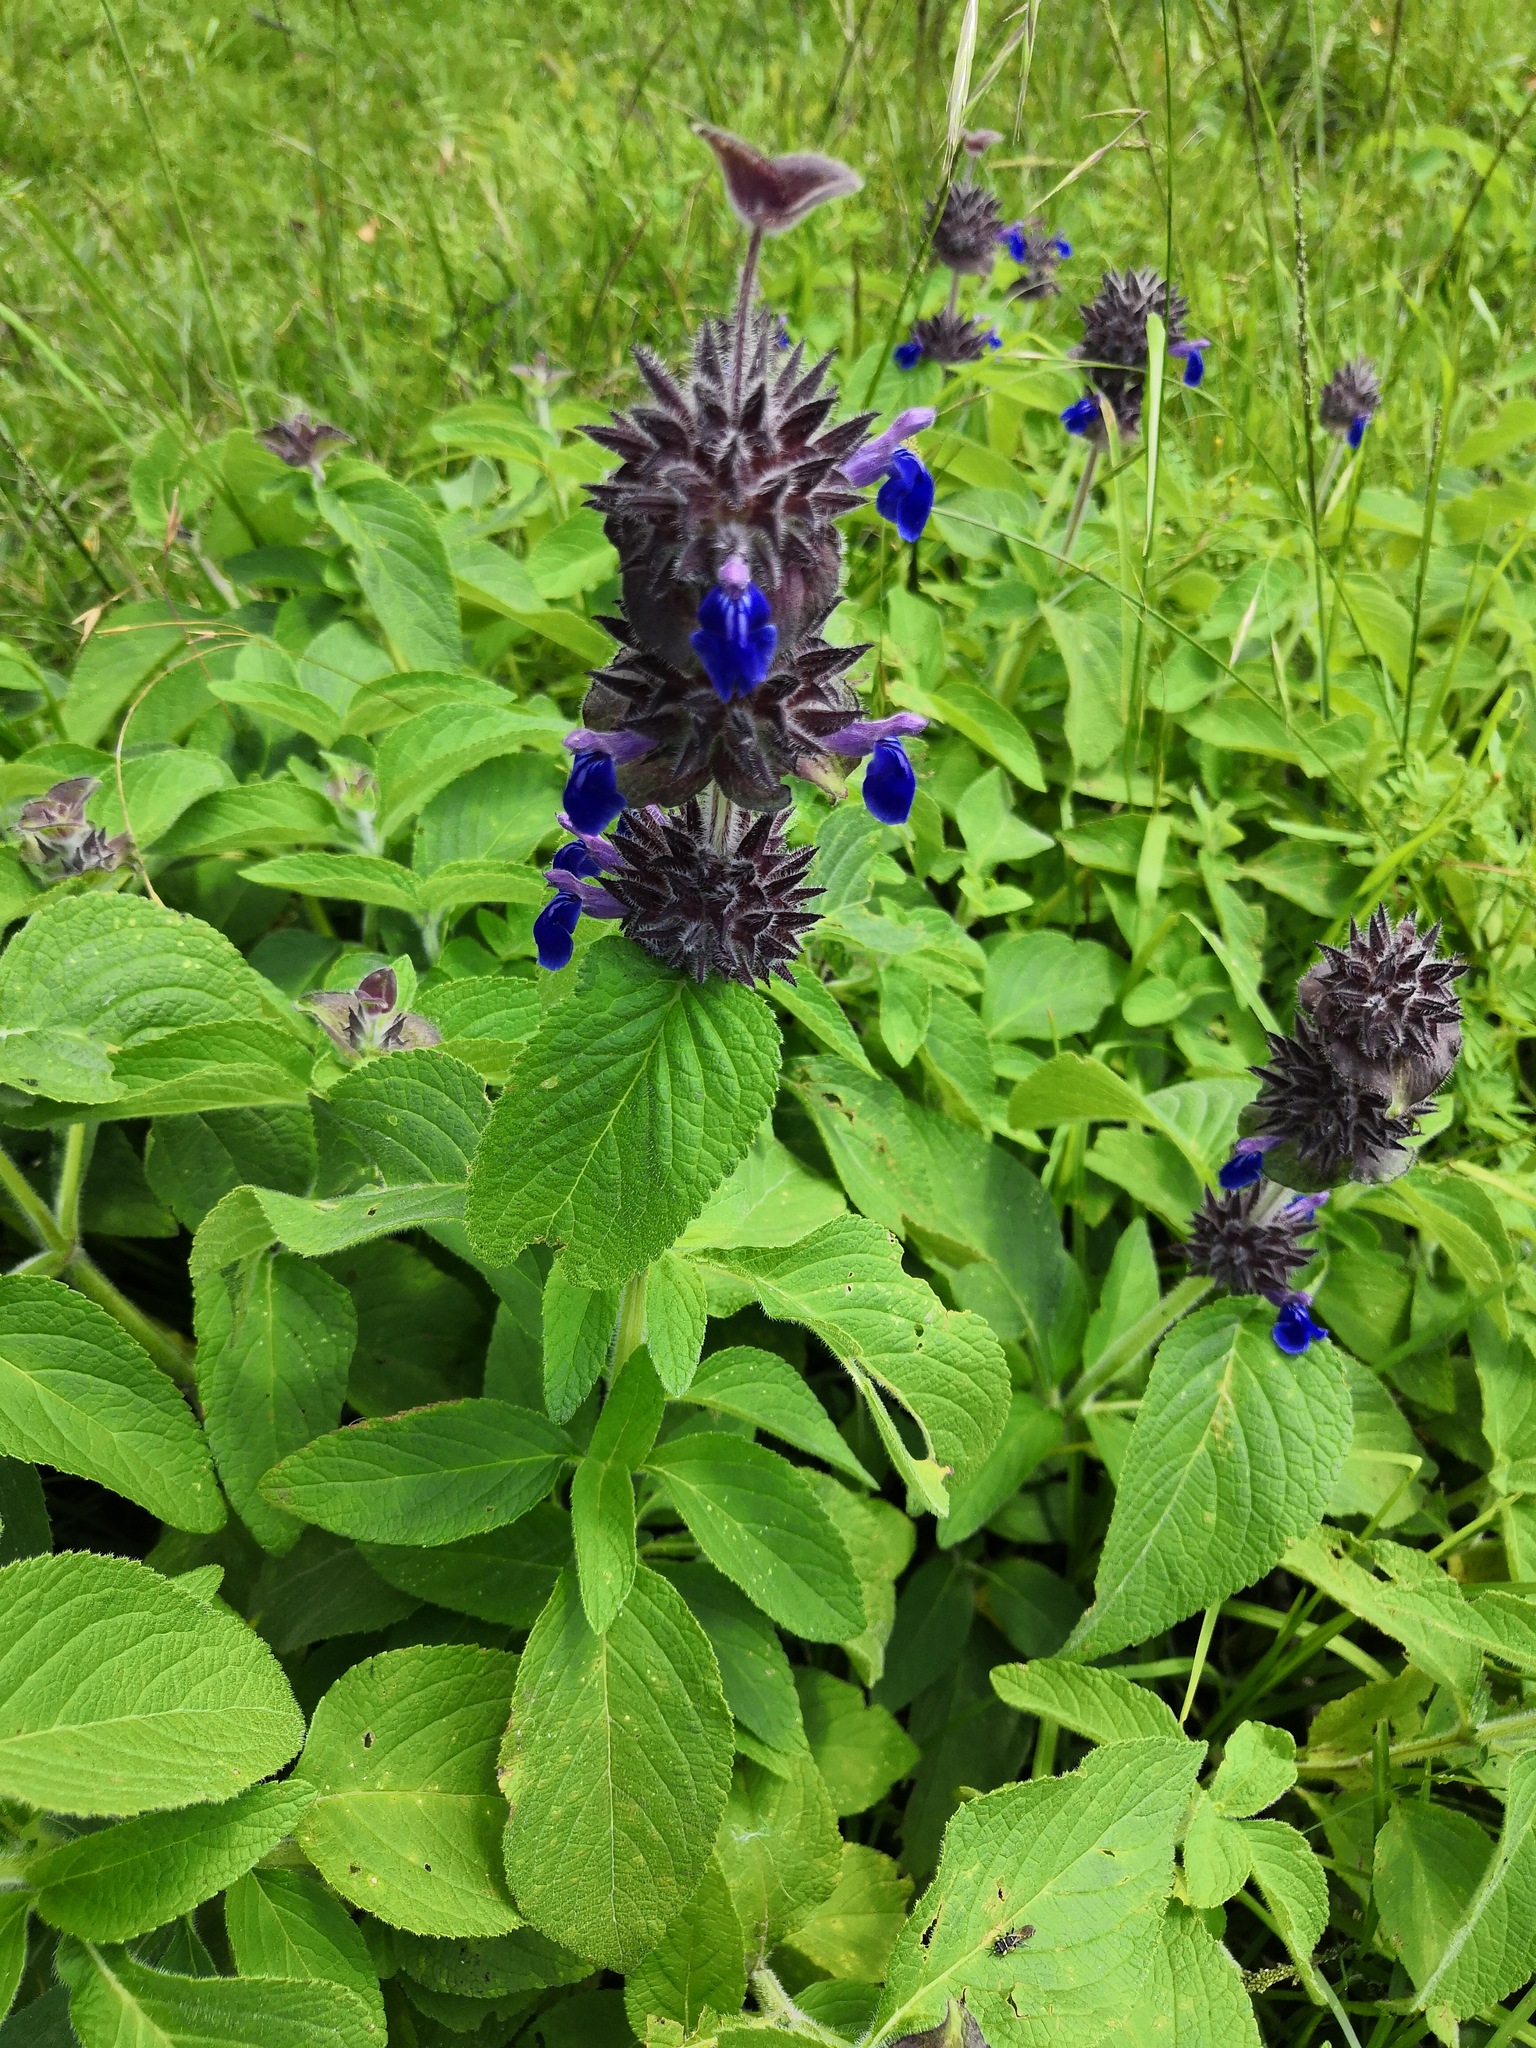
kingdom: Plantae
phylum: Tracheophyta
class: Magnoliopsida
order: Lamiales
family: Lamiaceae
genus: Salvia
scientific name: Salvia clinopodioides
